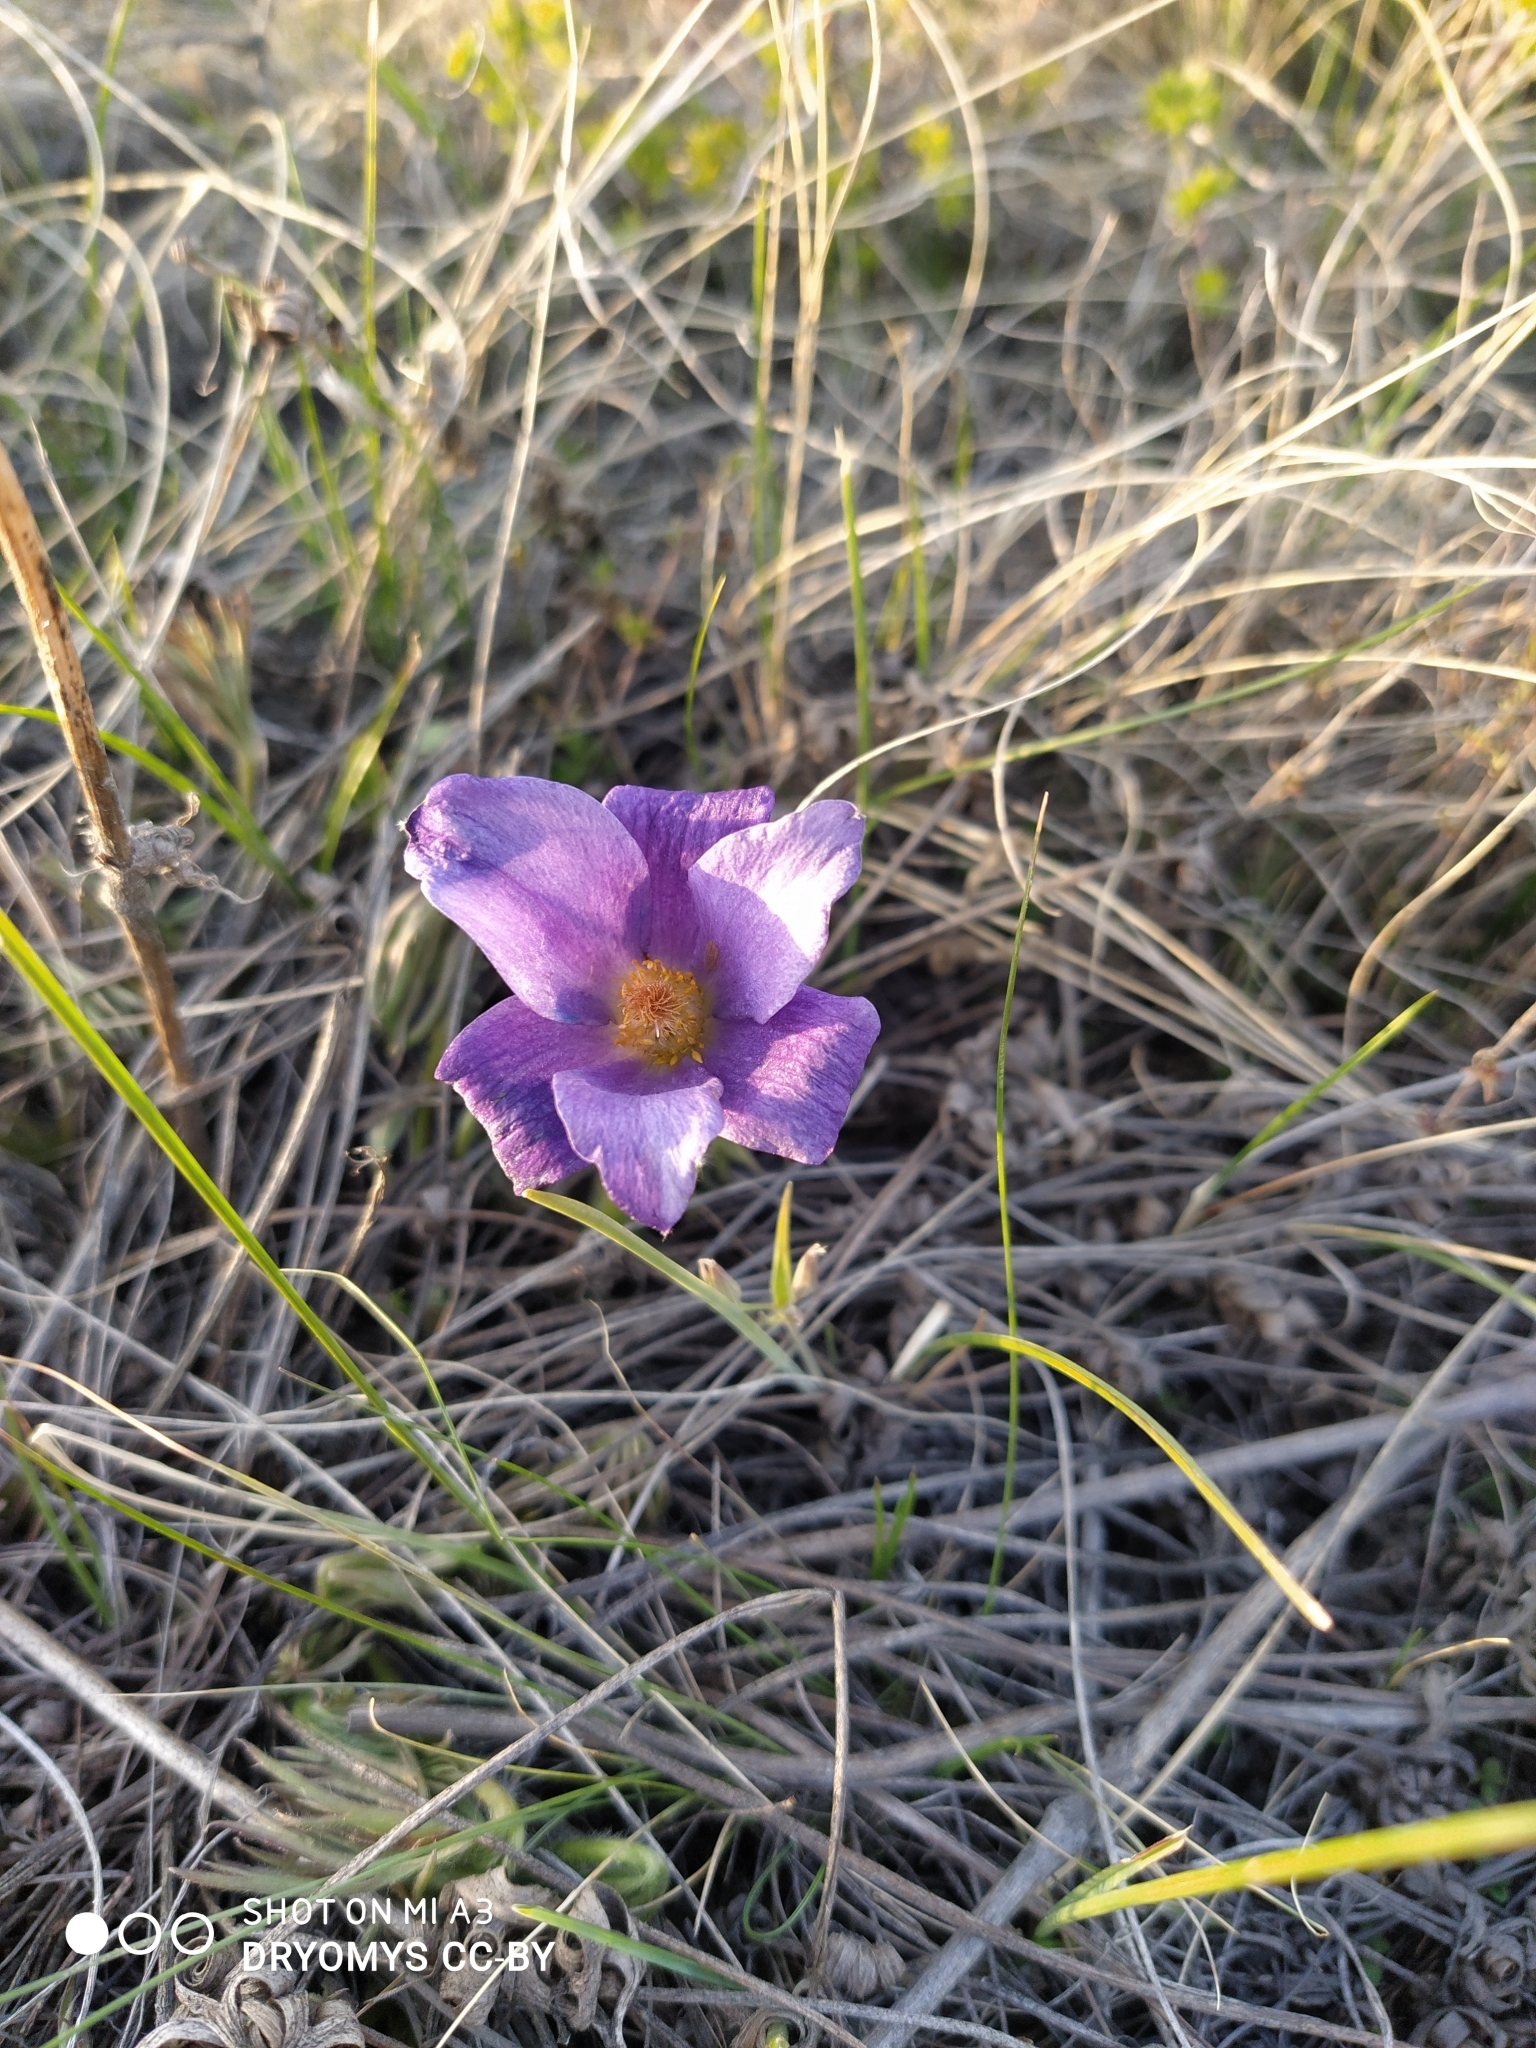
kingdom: Plantae
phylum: Tracheophyta
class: Magnoliopsida
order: Ranunculales
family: Ranunculaceae
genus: Pulsatilla
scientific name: Pulsatilla patens
